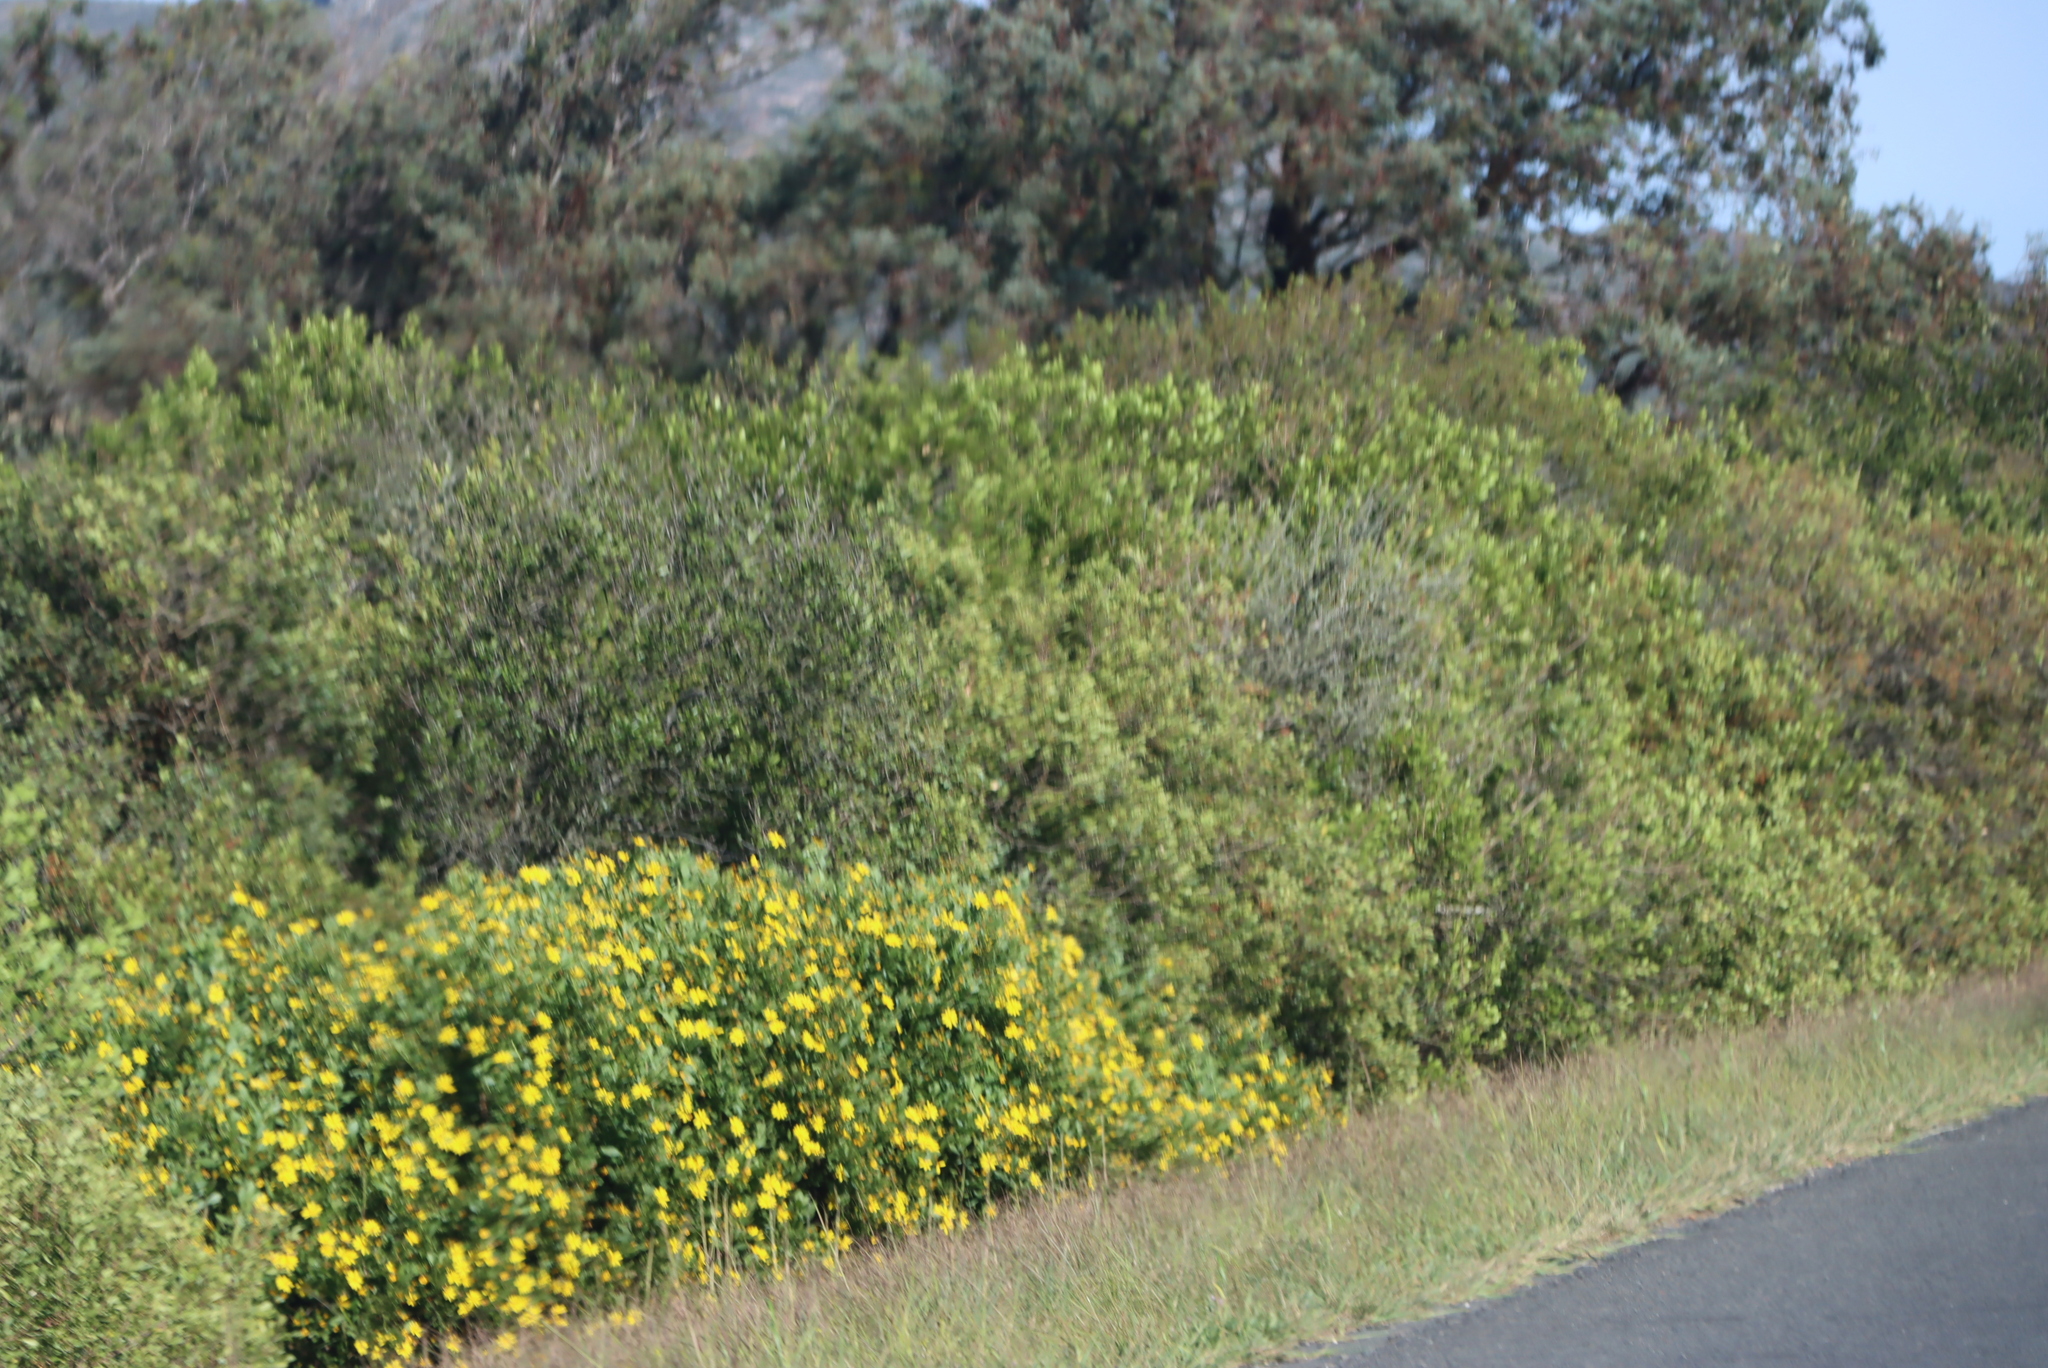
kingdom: Plantae
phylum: Tracheophyta
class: Magnoliopsida
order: Asterales
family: Asteraceae
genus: Osteospermum
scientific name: Osteospermum moniliferum
